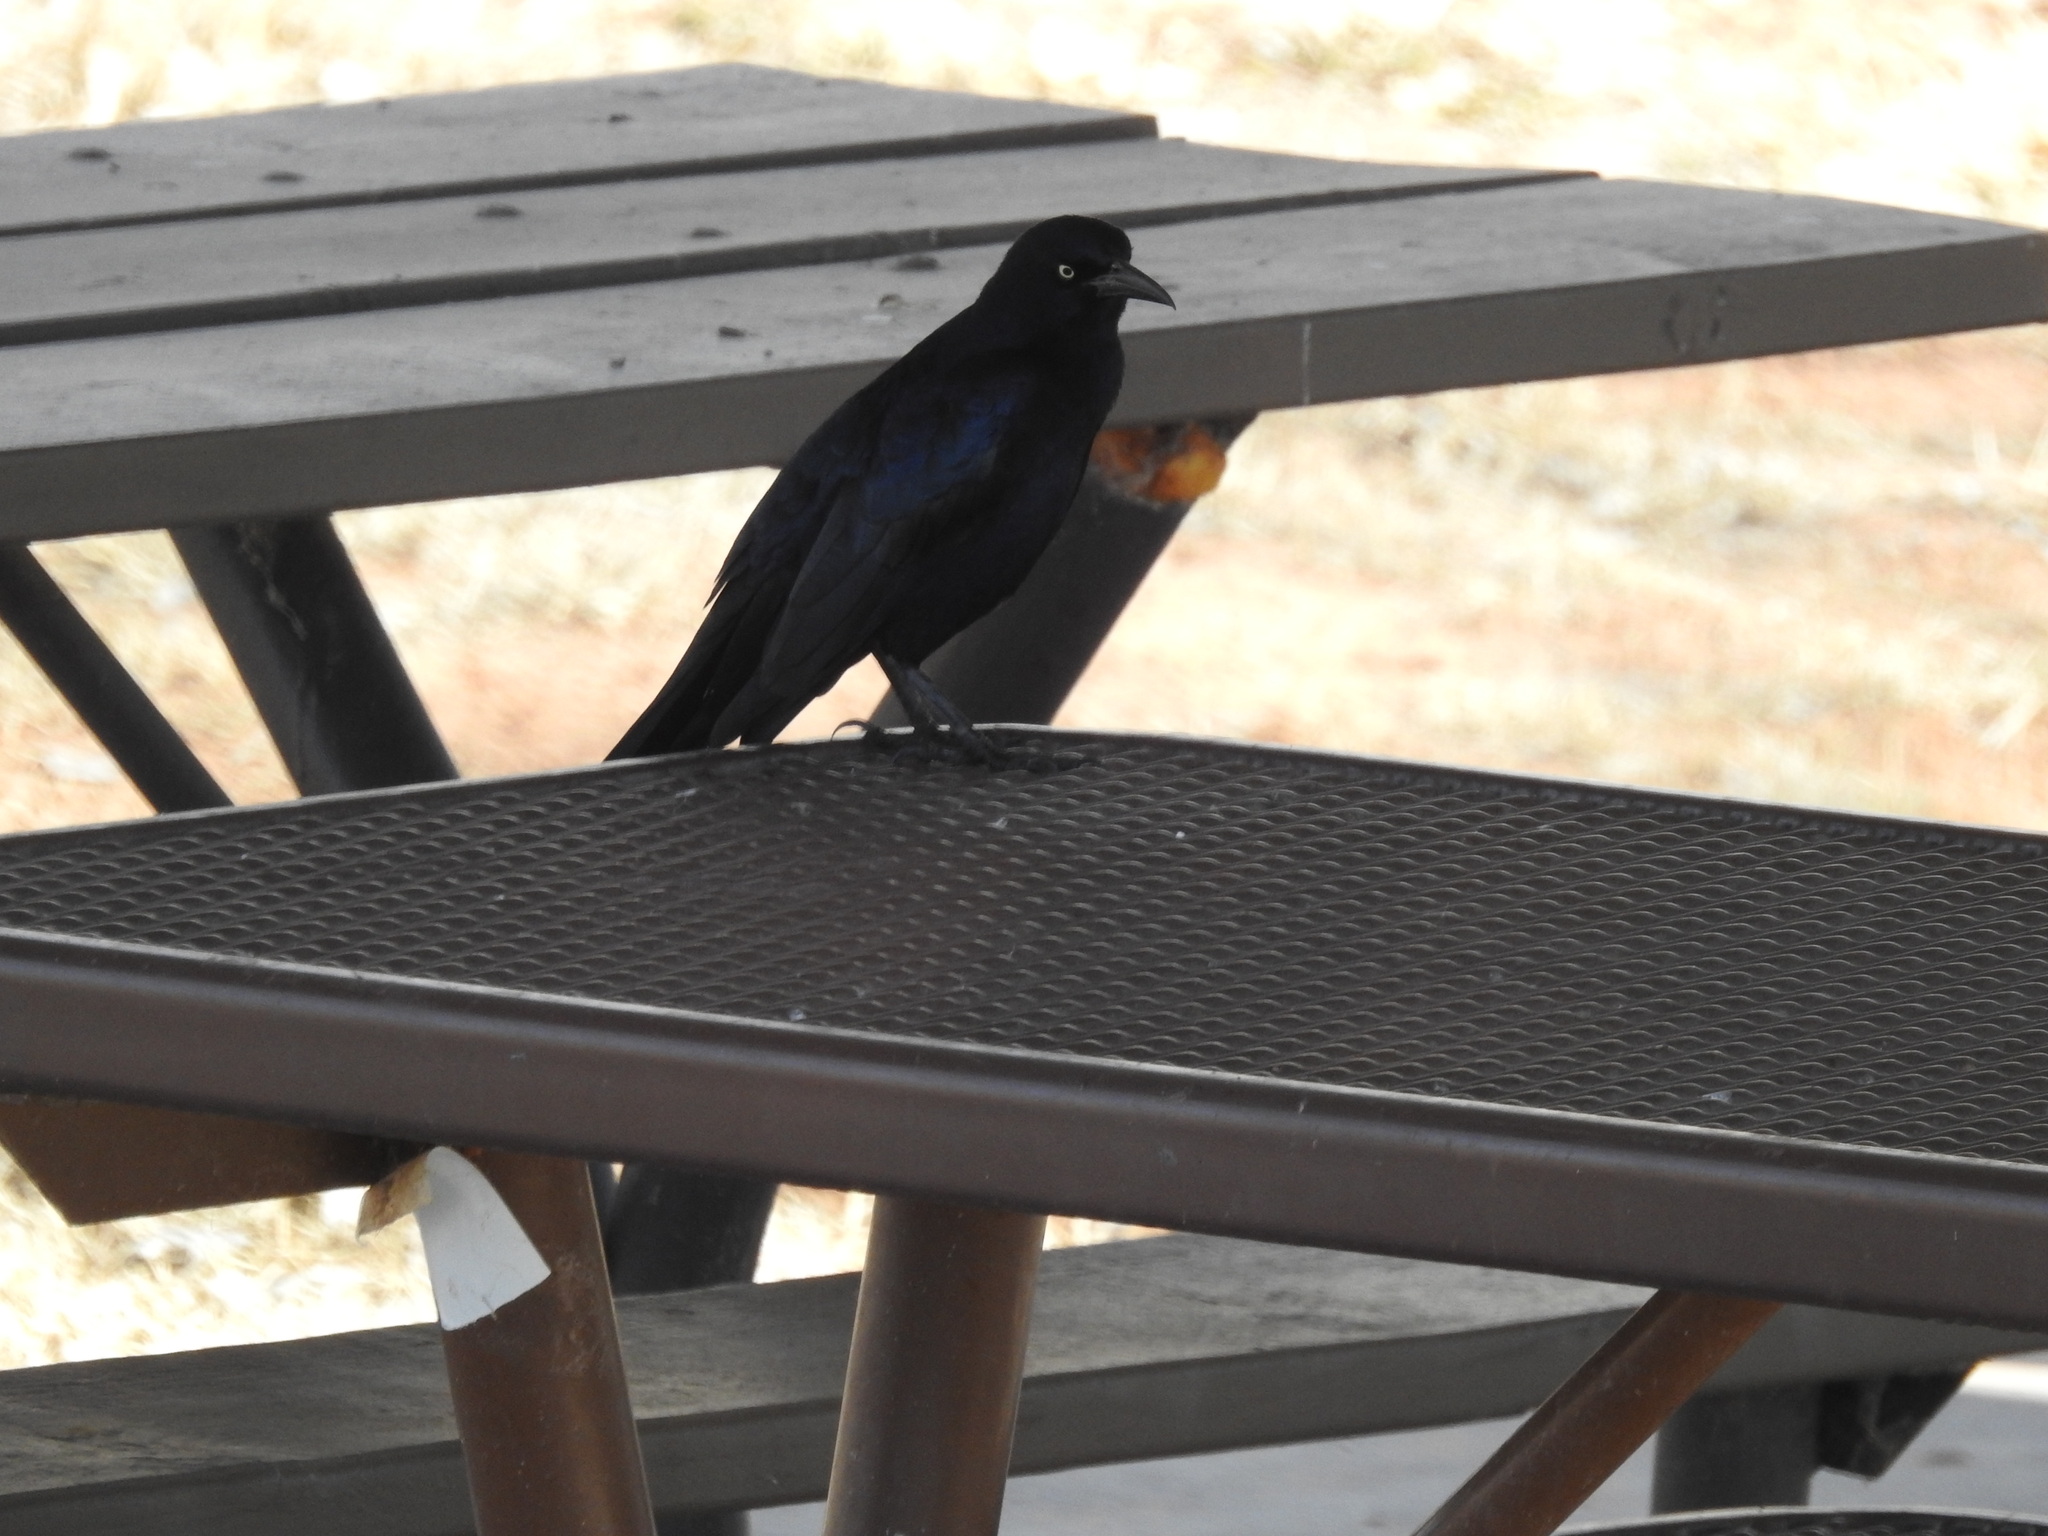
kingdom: Animalia
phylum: Chordata
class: Aves
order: Passeriformes
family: Icteridae
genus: Quiscalus
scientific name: Quiscalus mexicanus
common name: Great-tailed grackle
